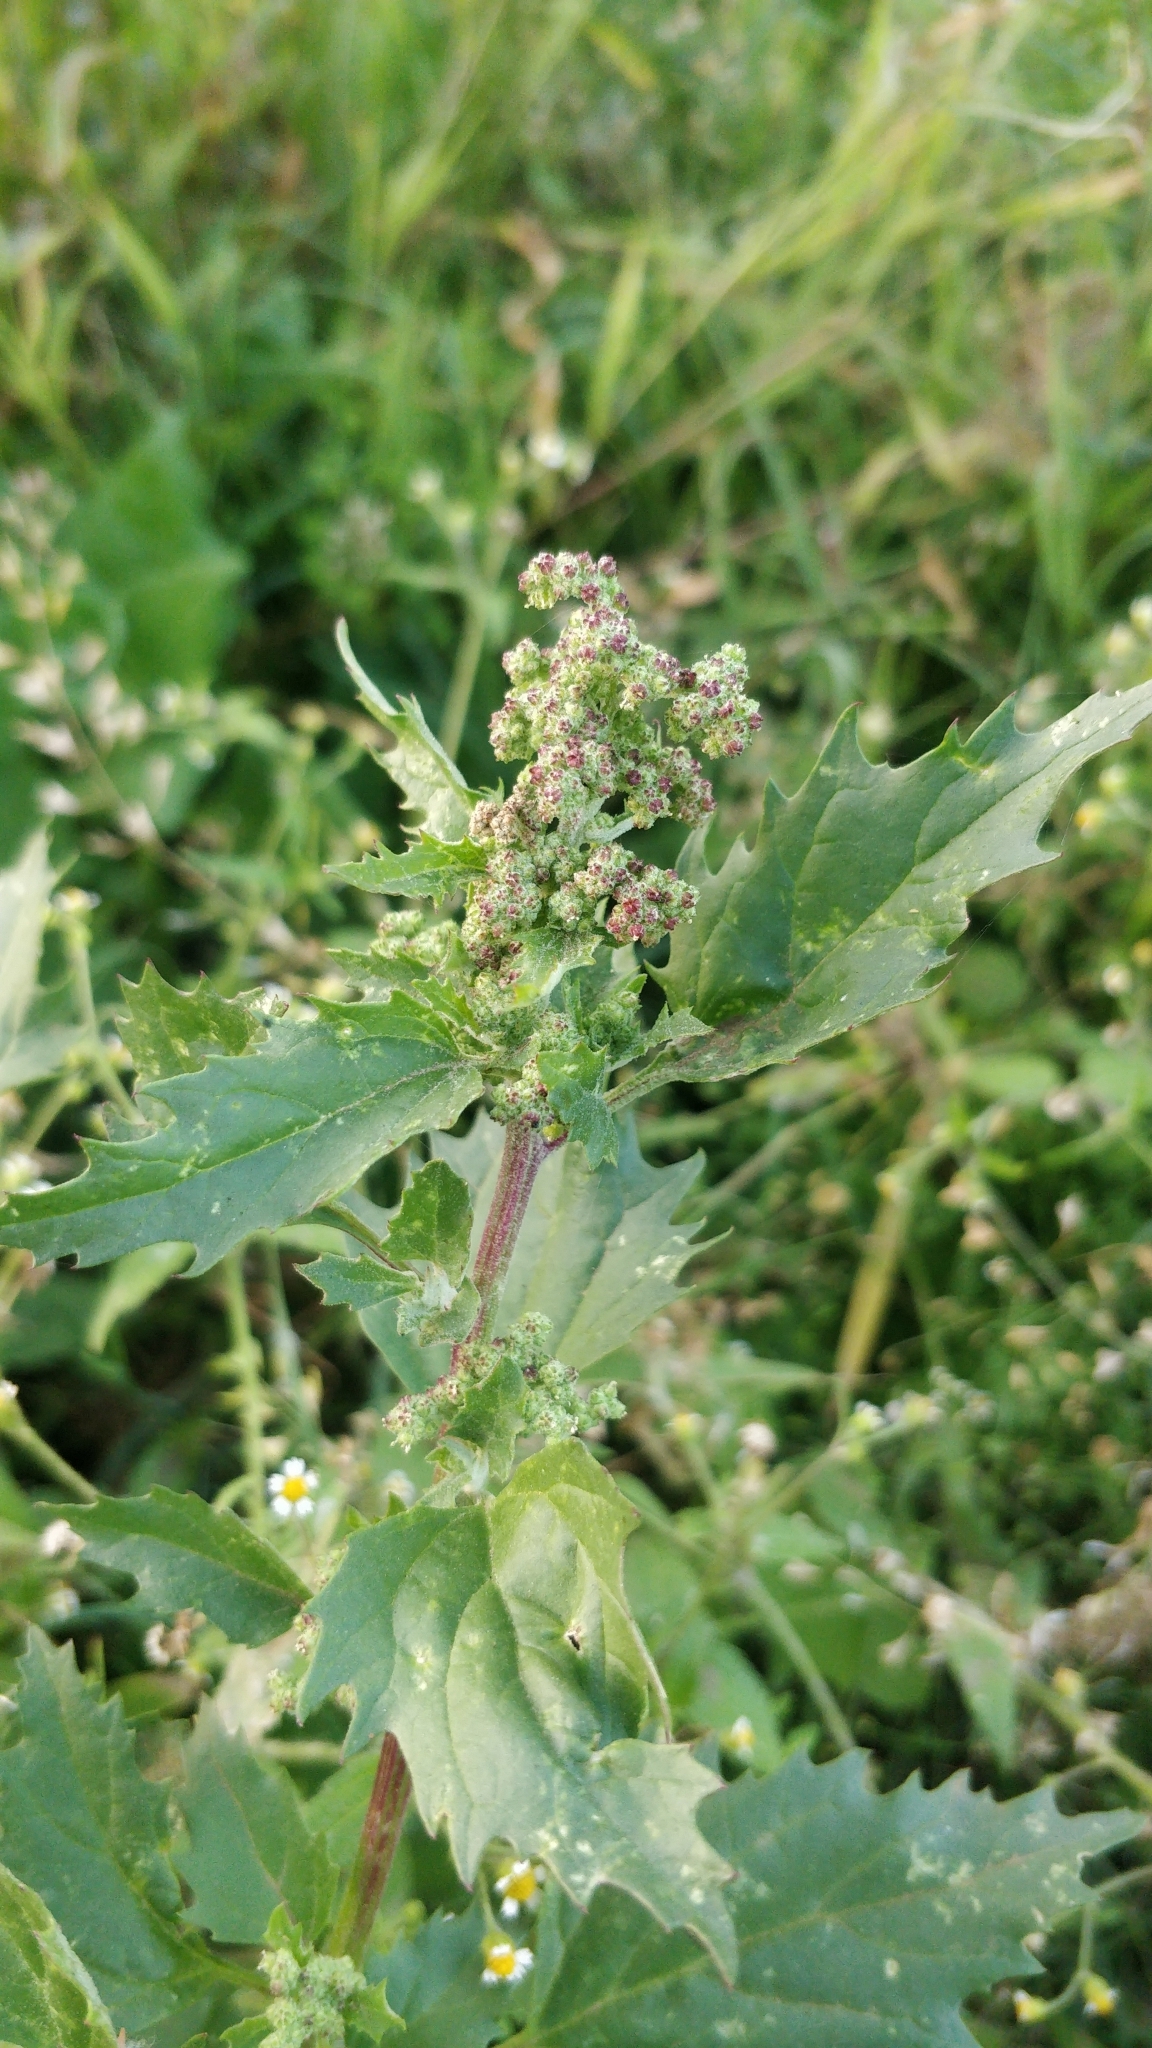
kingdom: Plantae
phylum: Tracheophyta
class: Magnoliopsida
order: Caryophyllales
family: Amaranthaceae
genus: Chenopodiastrum
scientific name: Chenopodiastrum murale
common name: Sowbane
